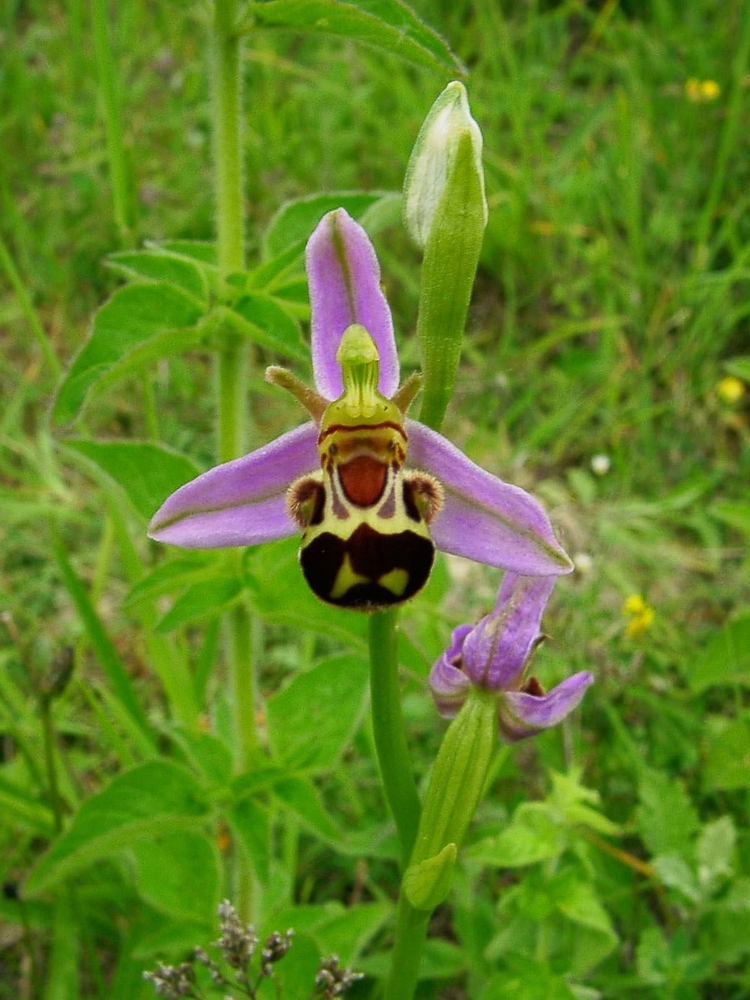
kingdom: Plantae
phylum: Tracheophyta
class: Liliopsida
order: Asparagales
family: Orchidaceae
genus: Ophrys
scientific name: Ophrys apifera
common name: Bee orchid
